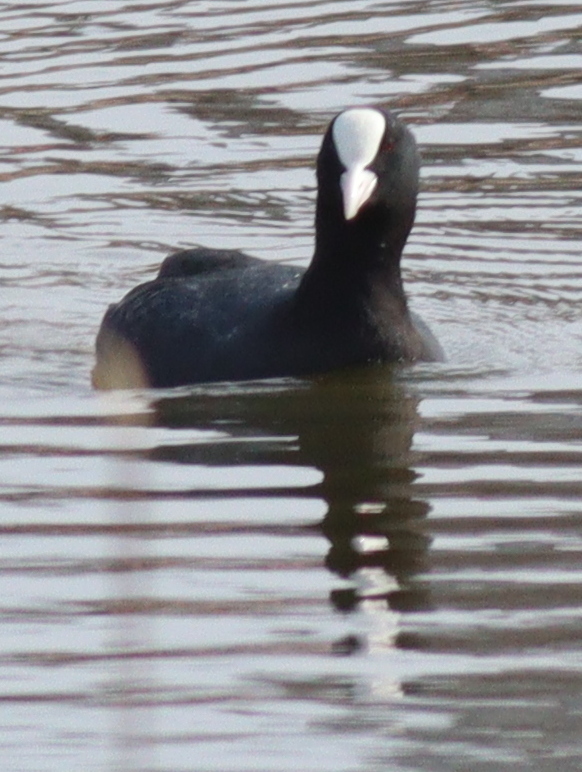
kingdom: Animalia
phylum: Chordata
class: Aves
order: Gruiformes
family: Rallidae
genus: Fulica
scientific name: Fulica atra
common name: Eurasian coot
